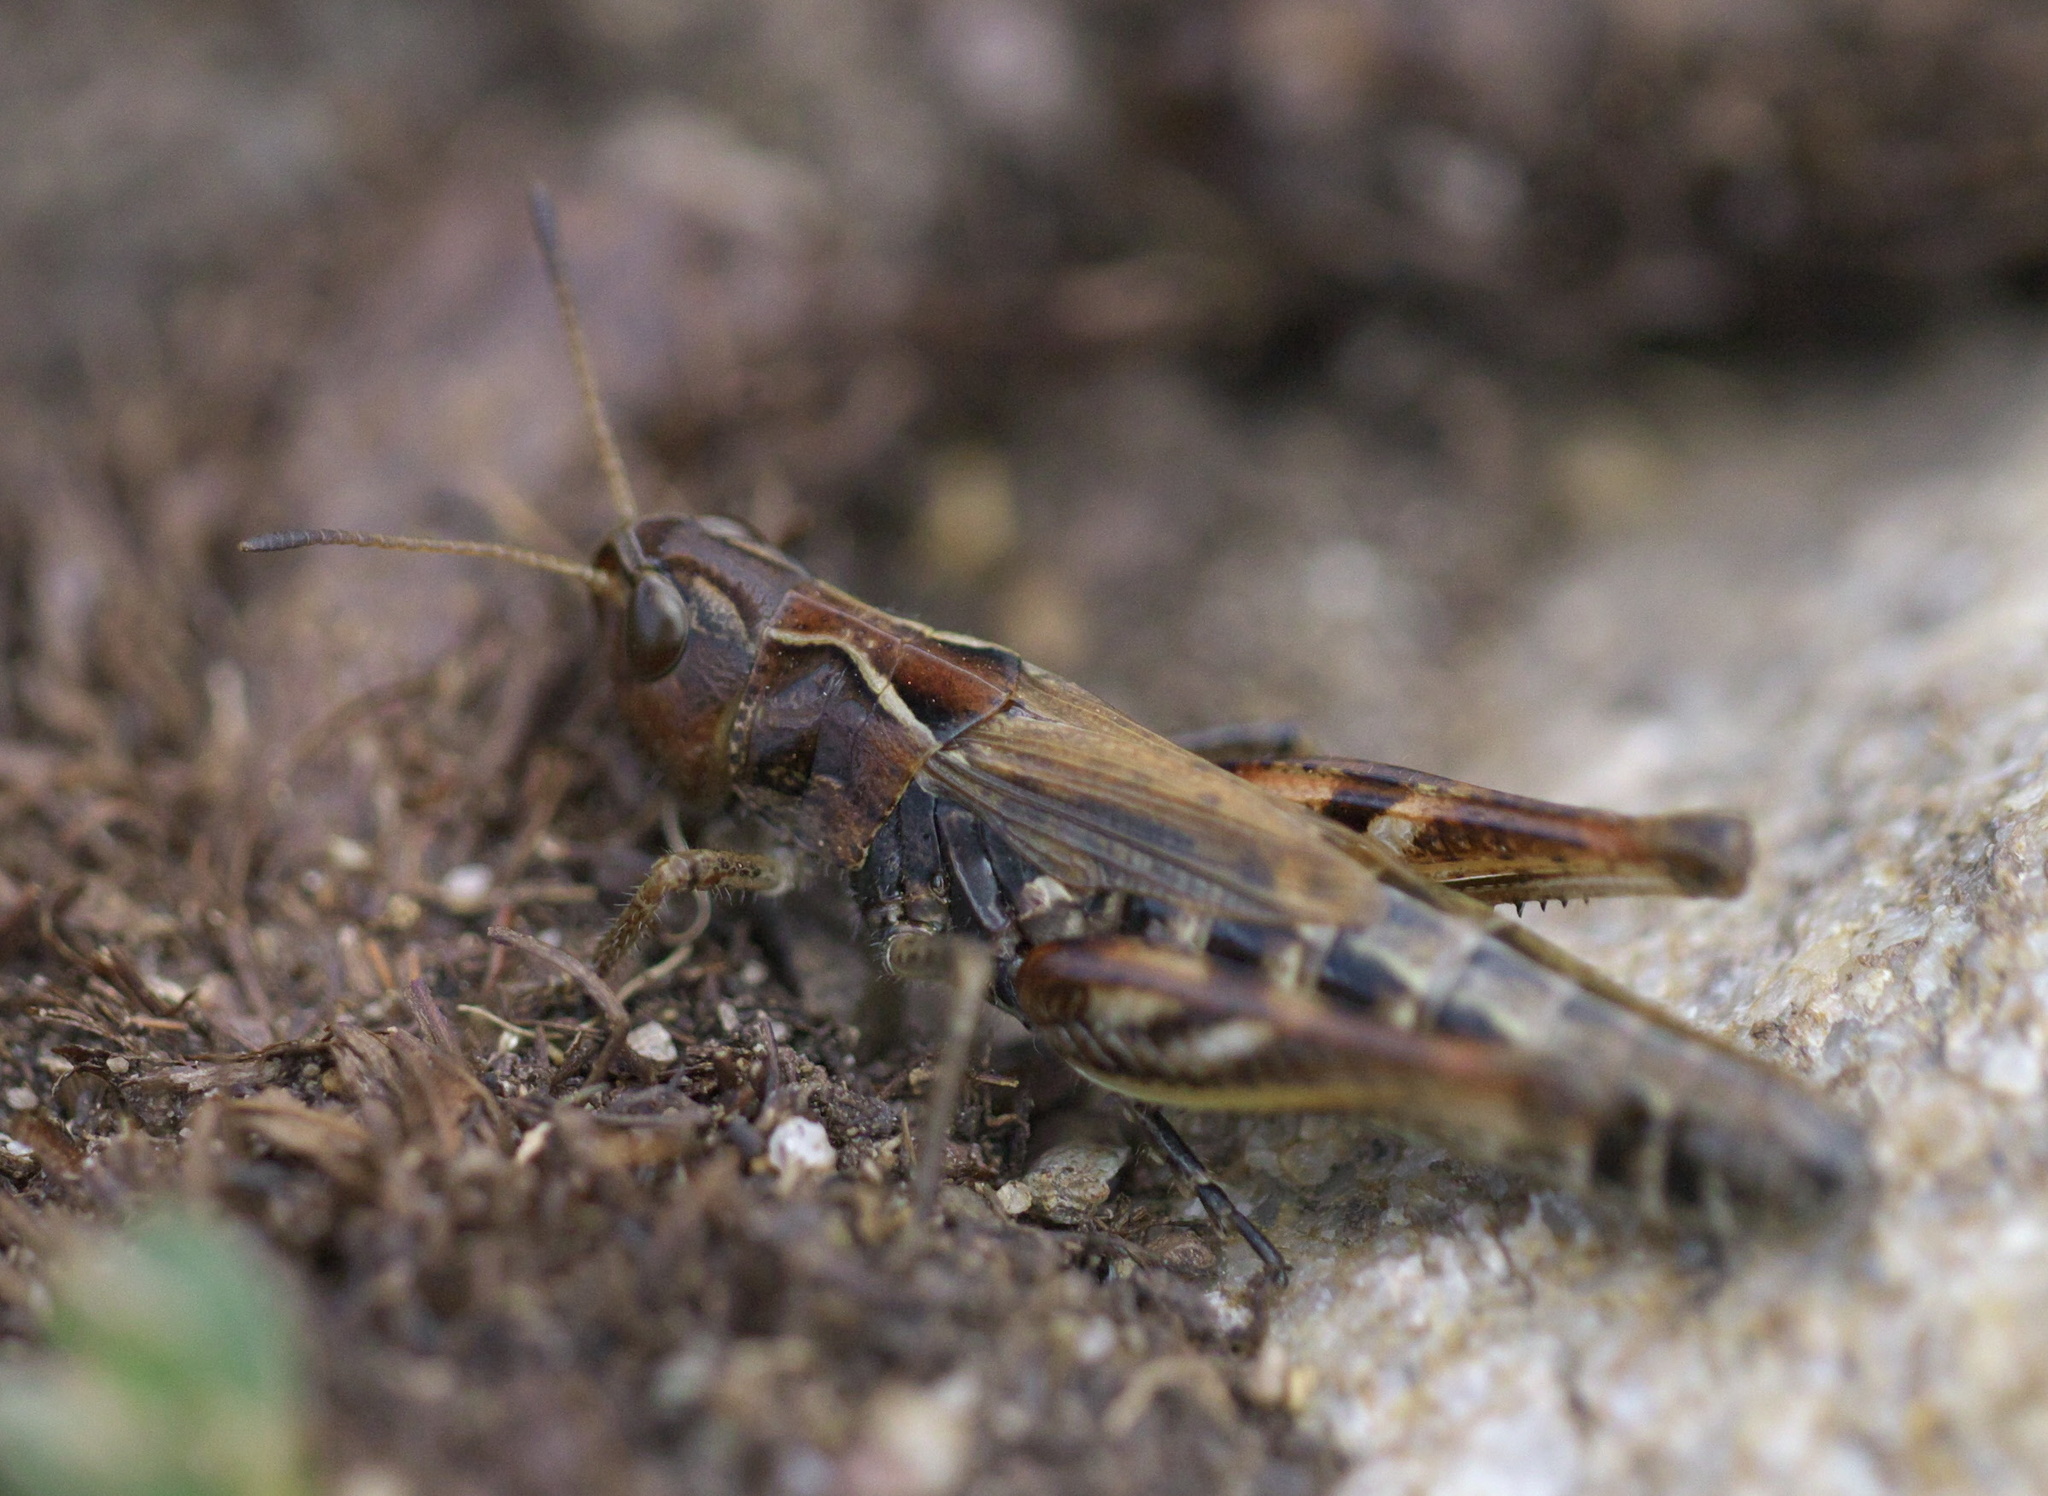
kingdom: Animalia
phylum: Arthropoda
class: Insecta
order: Orthoptera
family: Acrididae
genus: Aeropedellus
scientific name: Aeropedellus clavatus
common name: Clubhorned grasshopper
